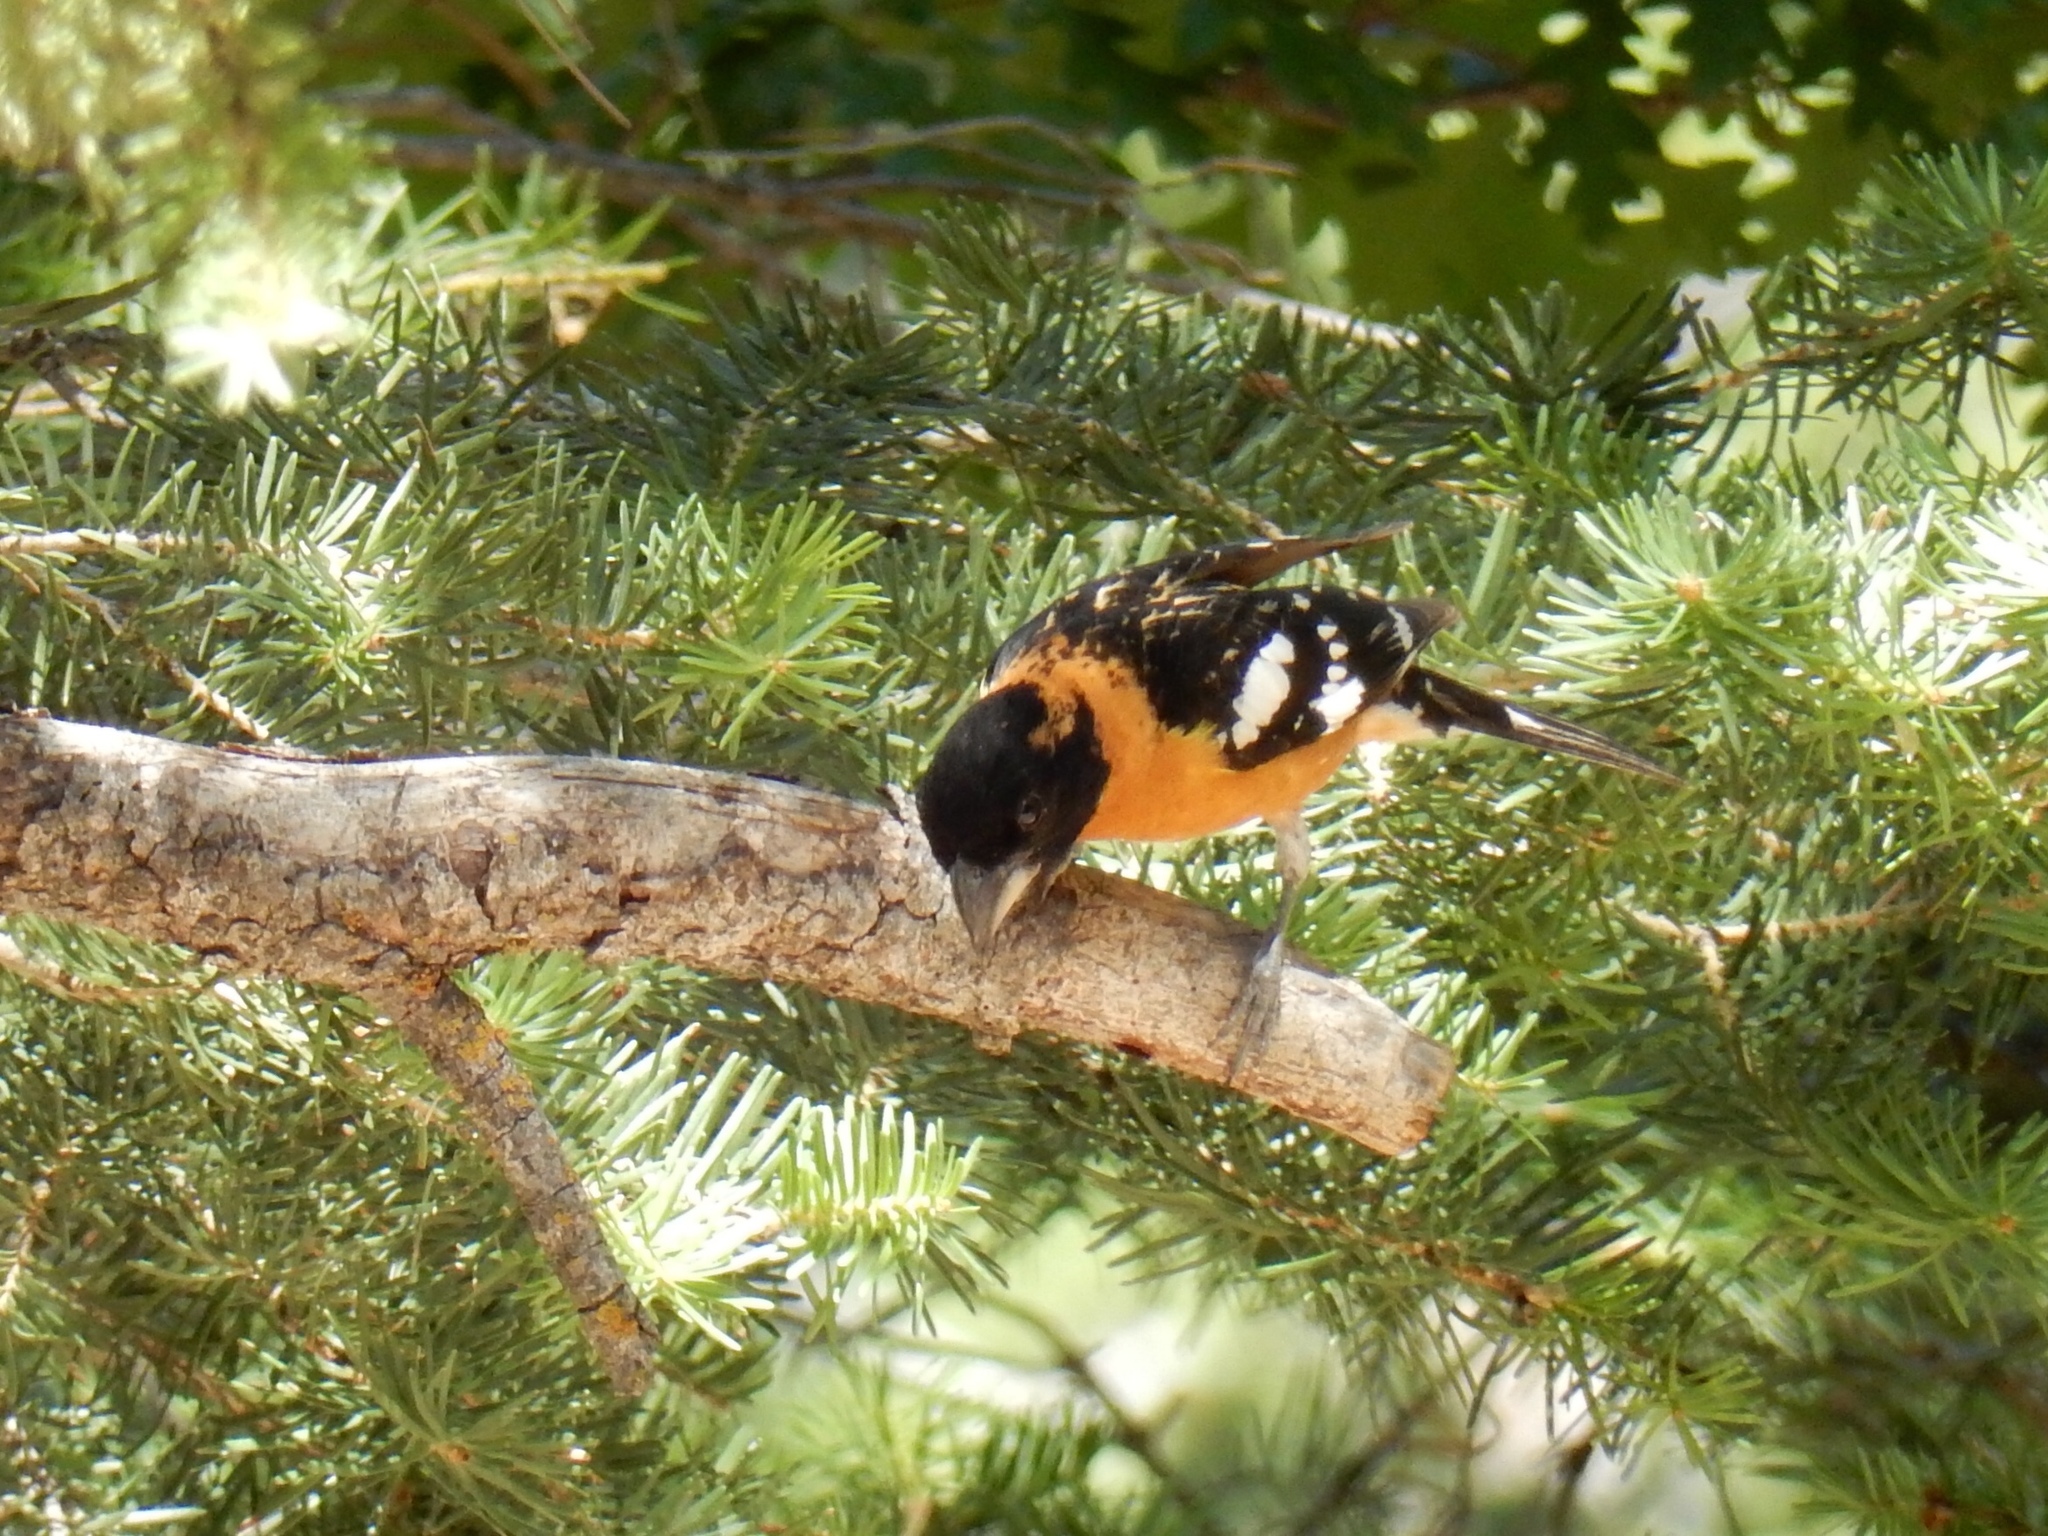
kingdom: Animalia
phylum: Chordata
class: Aves
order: Passeriformes
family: Cardinalidae
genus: Pheucticus
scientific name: Pheucticus melanocephalus
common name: Black-headed grosbeak
